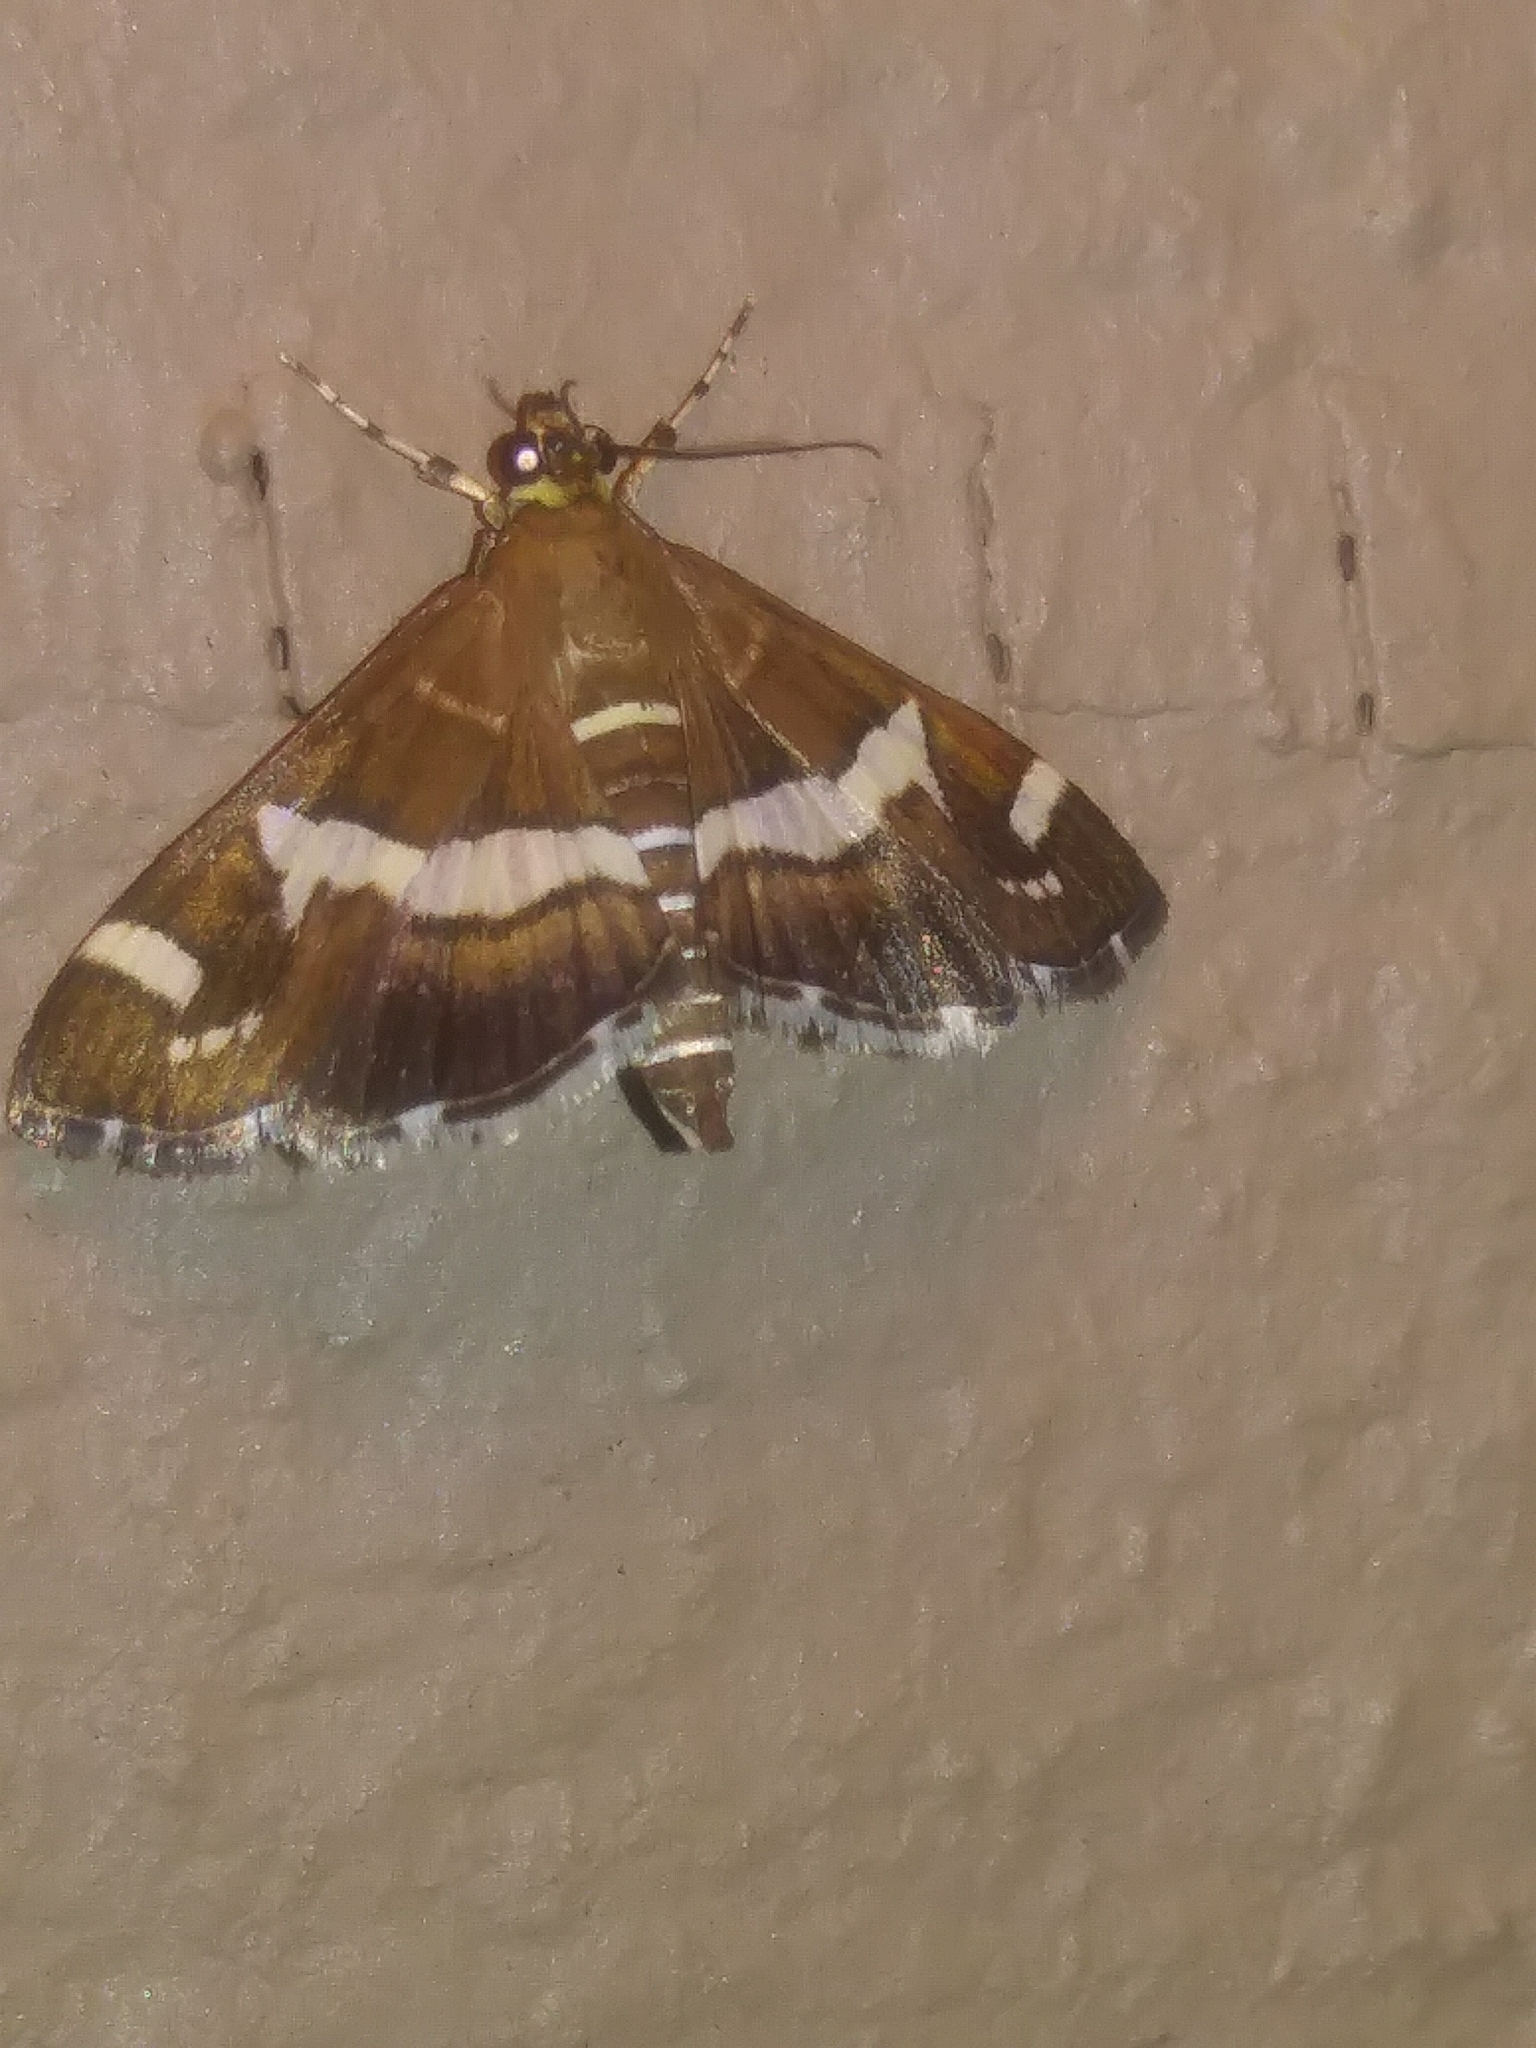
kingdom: Animalia
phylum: Arthropoda
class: Insecta
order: Lepidoptera
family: Crambidae
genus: Spoladea
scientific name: Spoladea recurvalis
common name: Beet webworm moth
